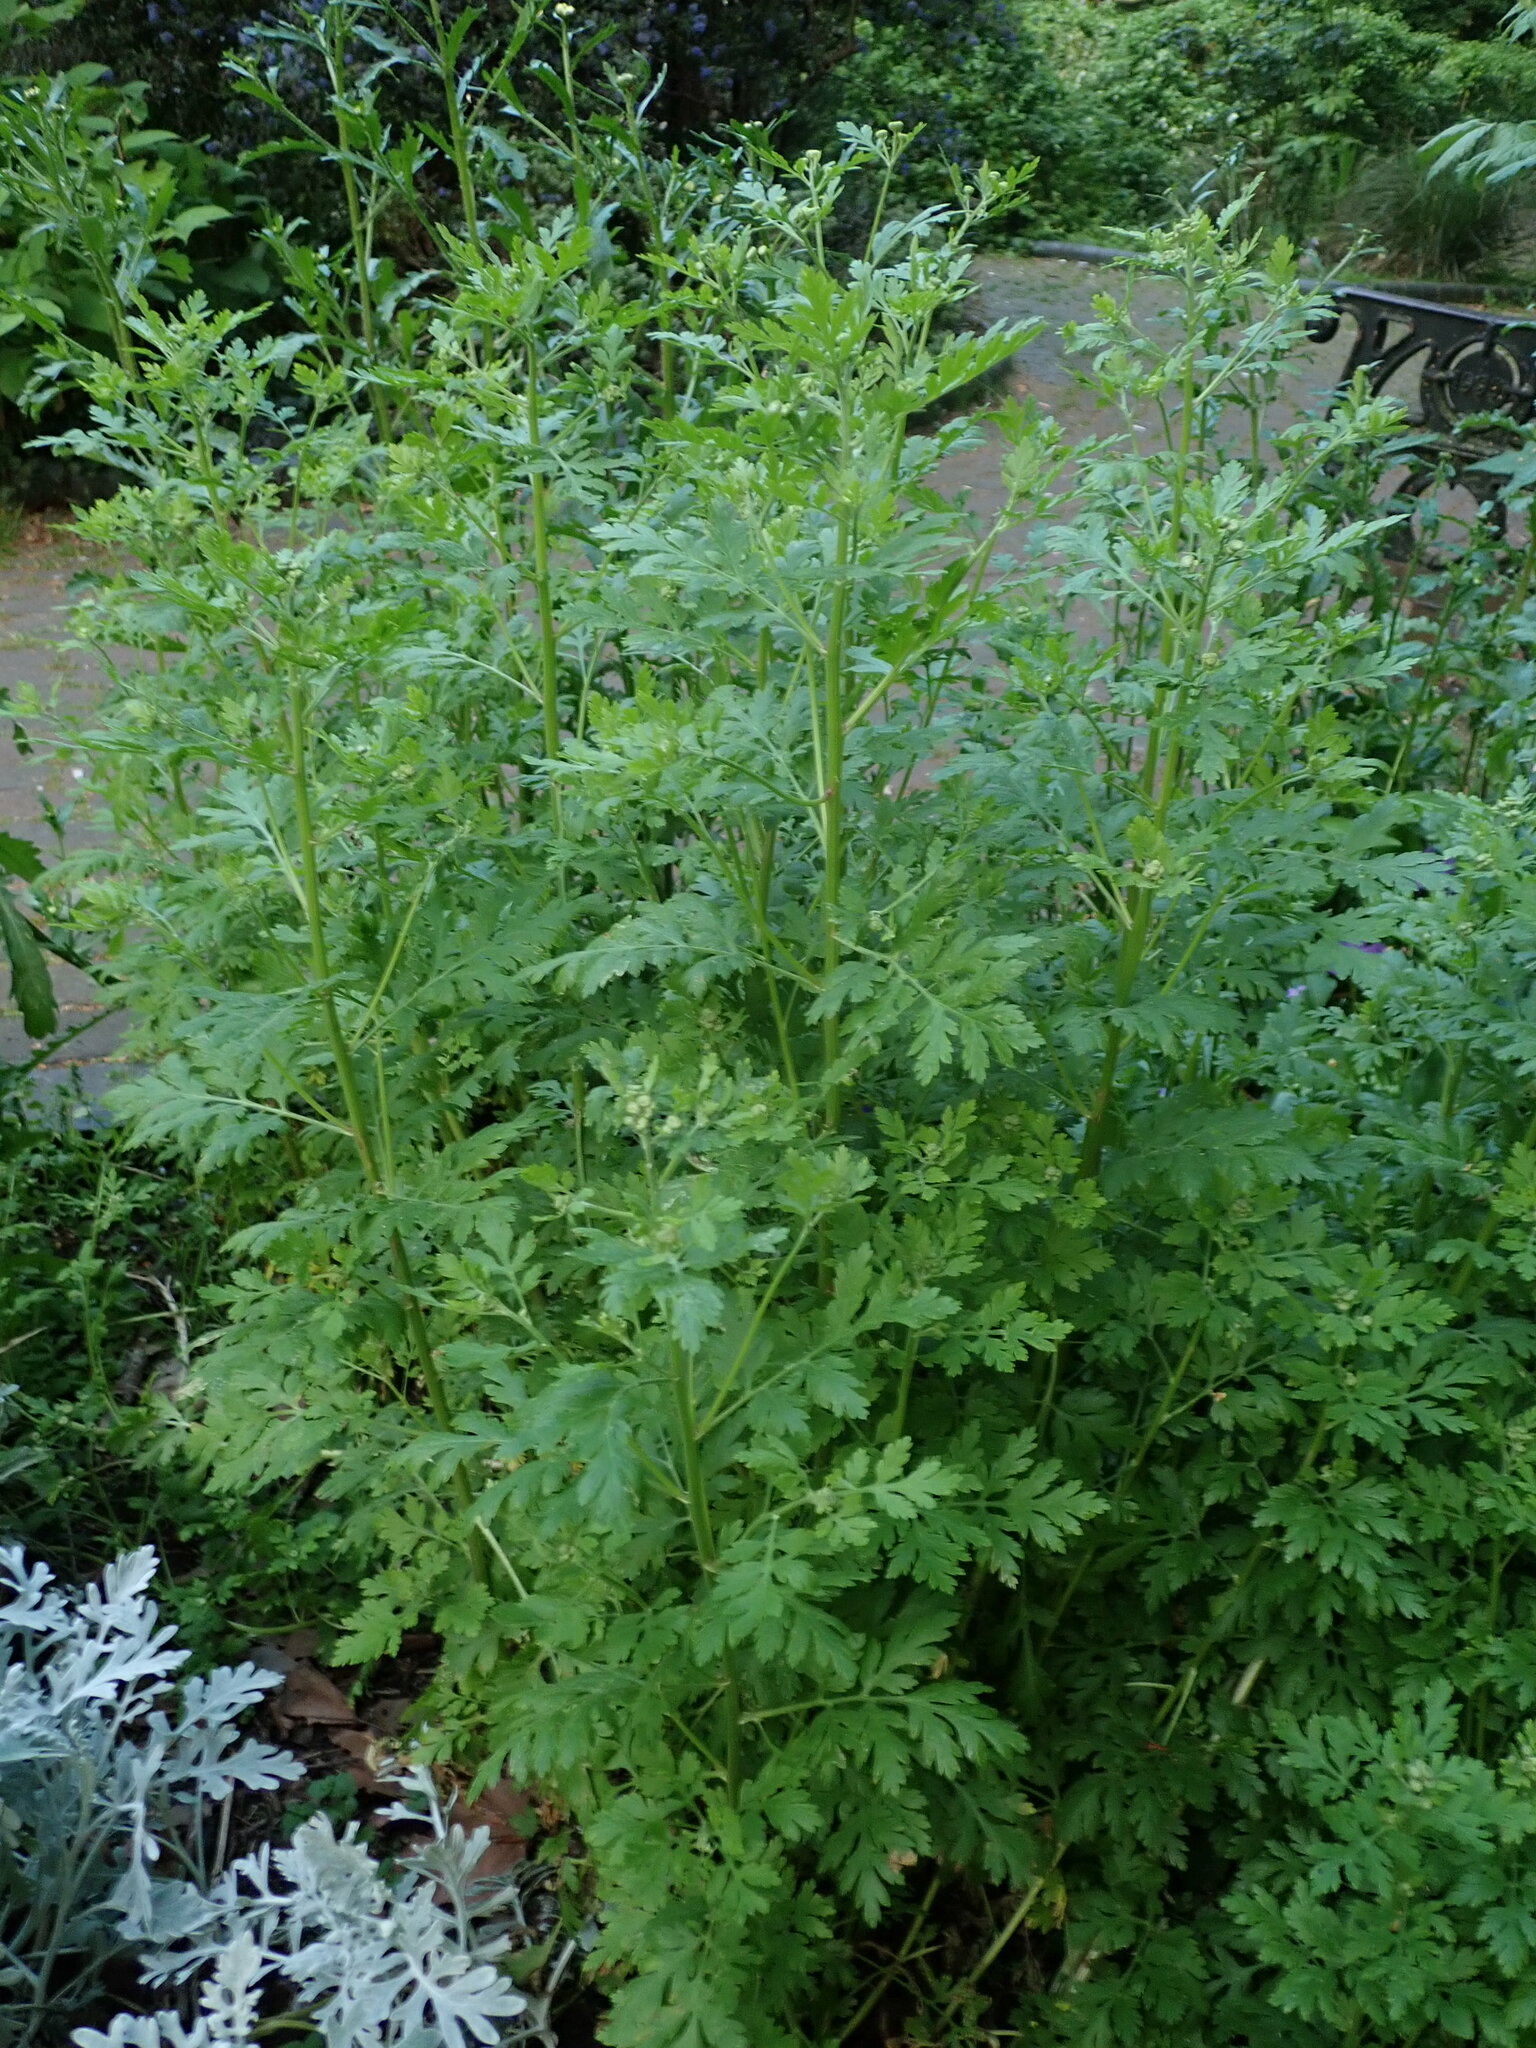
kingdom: Plantae
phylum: Tracheophyta
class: Magnoliopsida
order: Asterales
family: Asteraceae
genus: Tanacetum
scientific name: Tanacetum parthenium
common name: Feverfew
